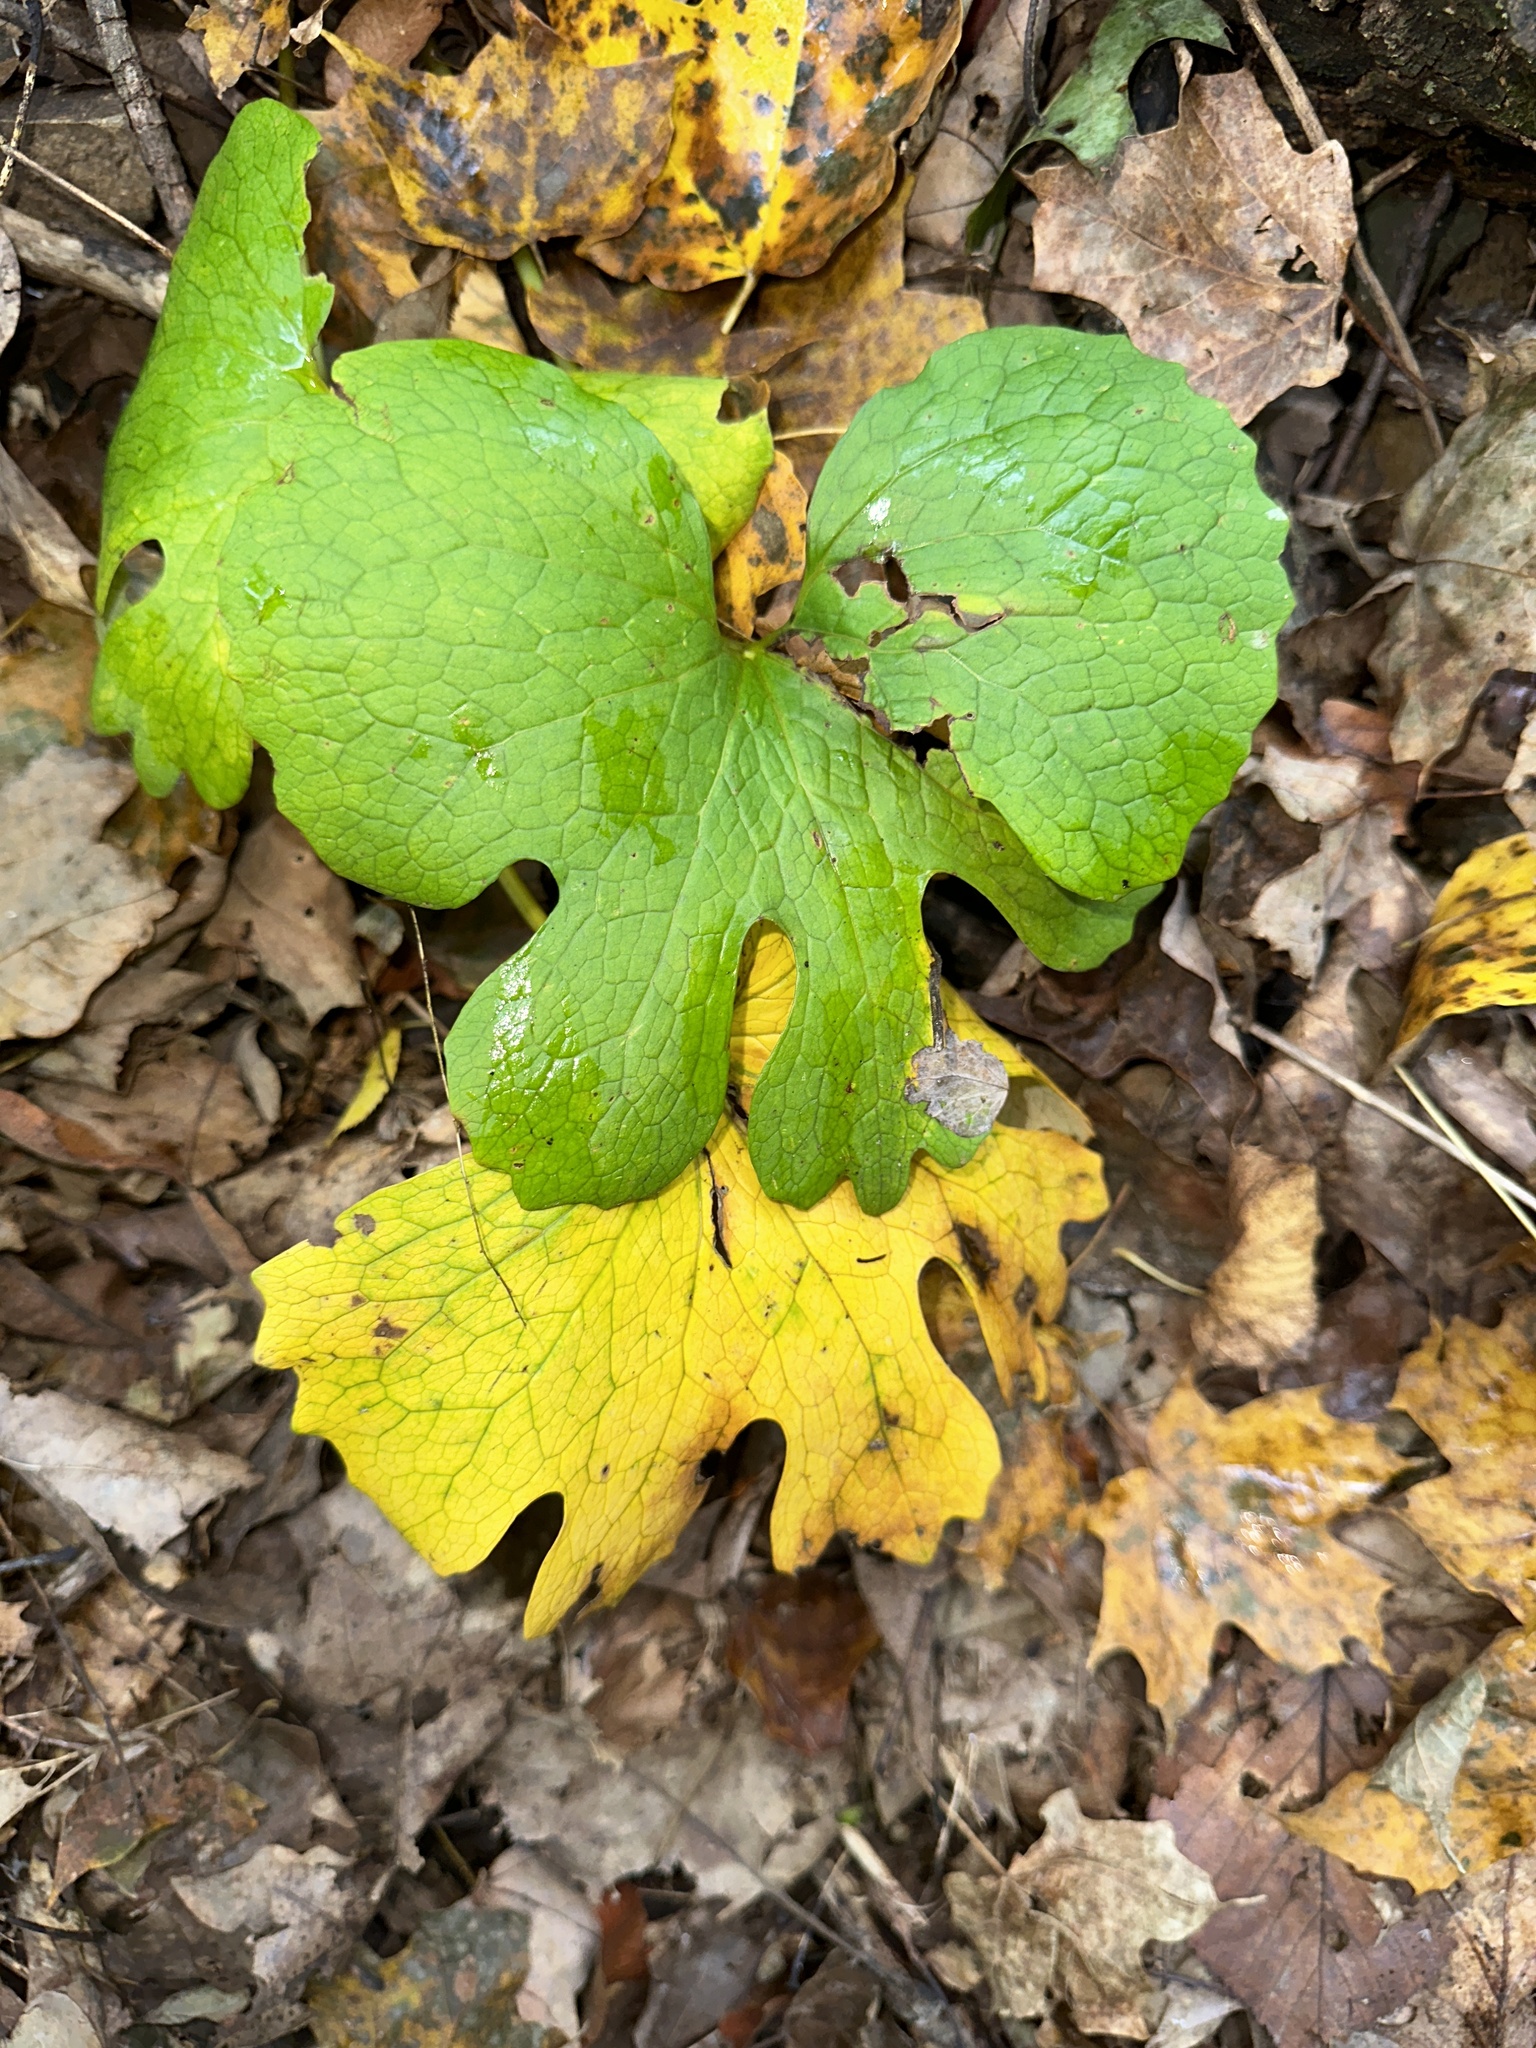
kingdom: Plantae
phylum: Tracheophyta
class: Magnoliopsida
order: Ranunculales
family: Papaveraceae
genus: Sanguinaria
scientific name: Sanguinaria canadensis
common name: Bloodroot
